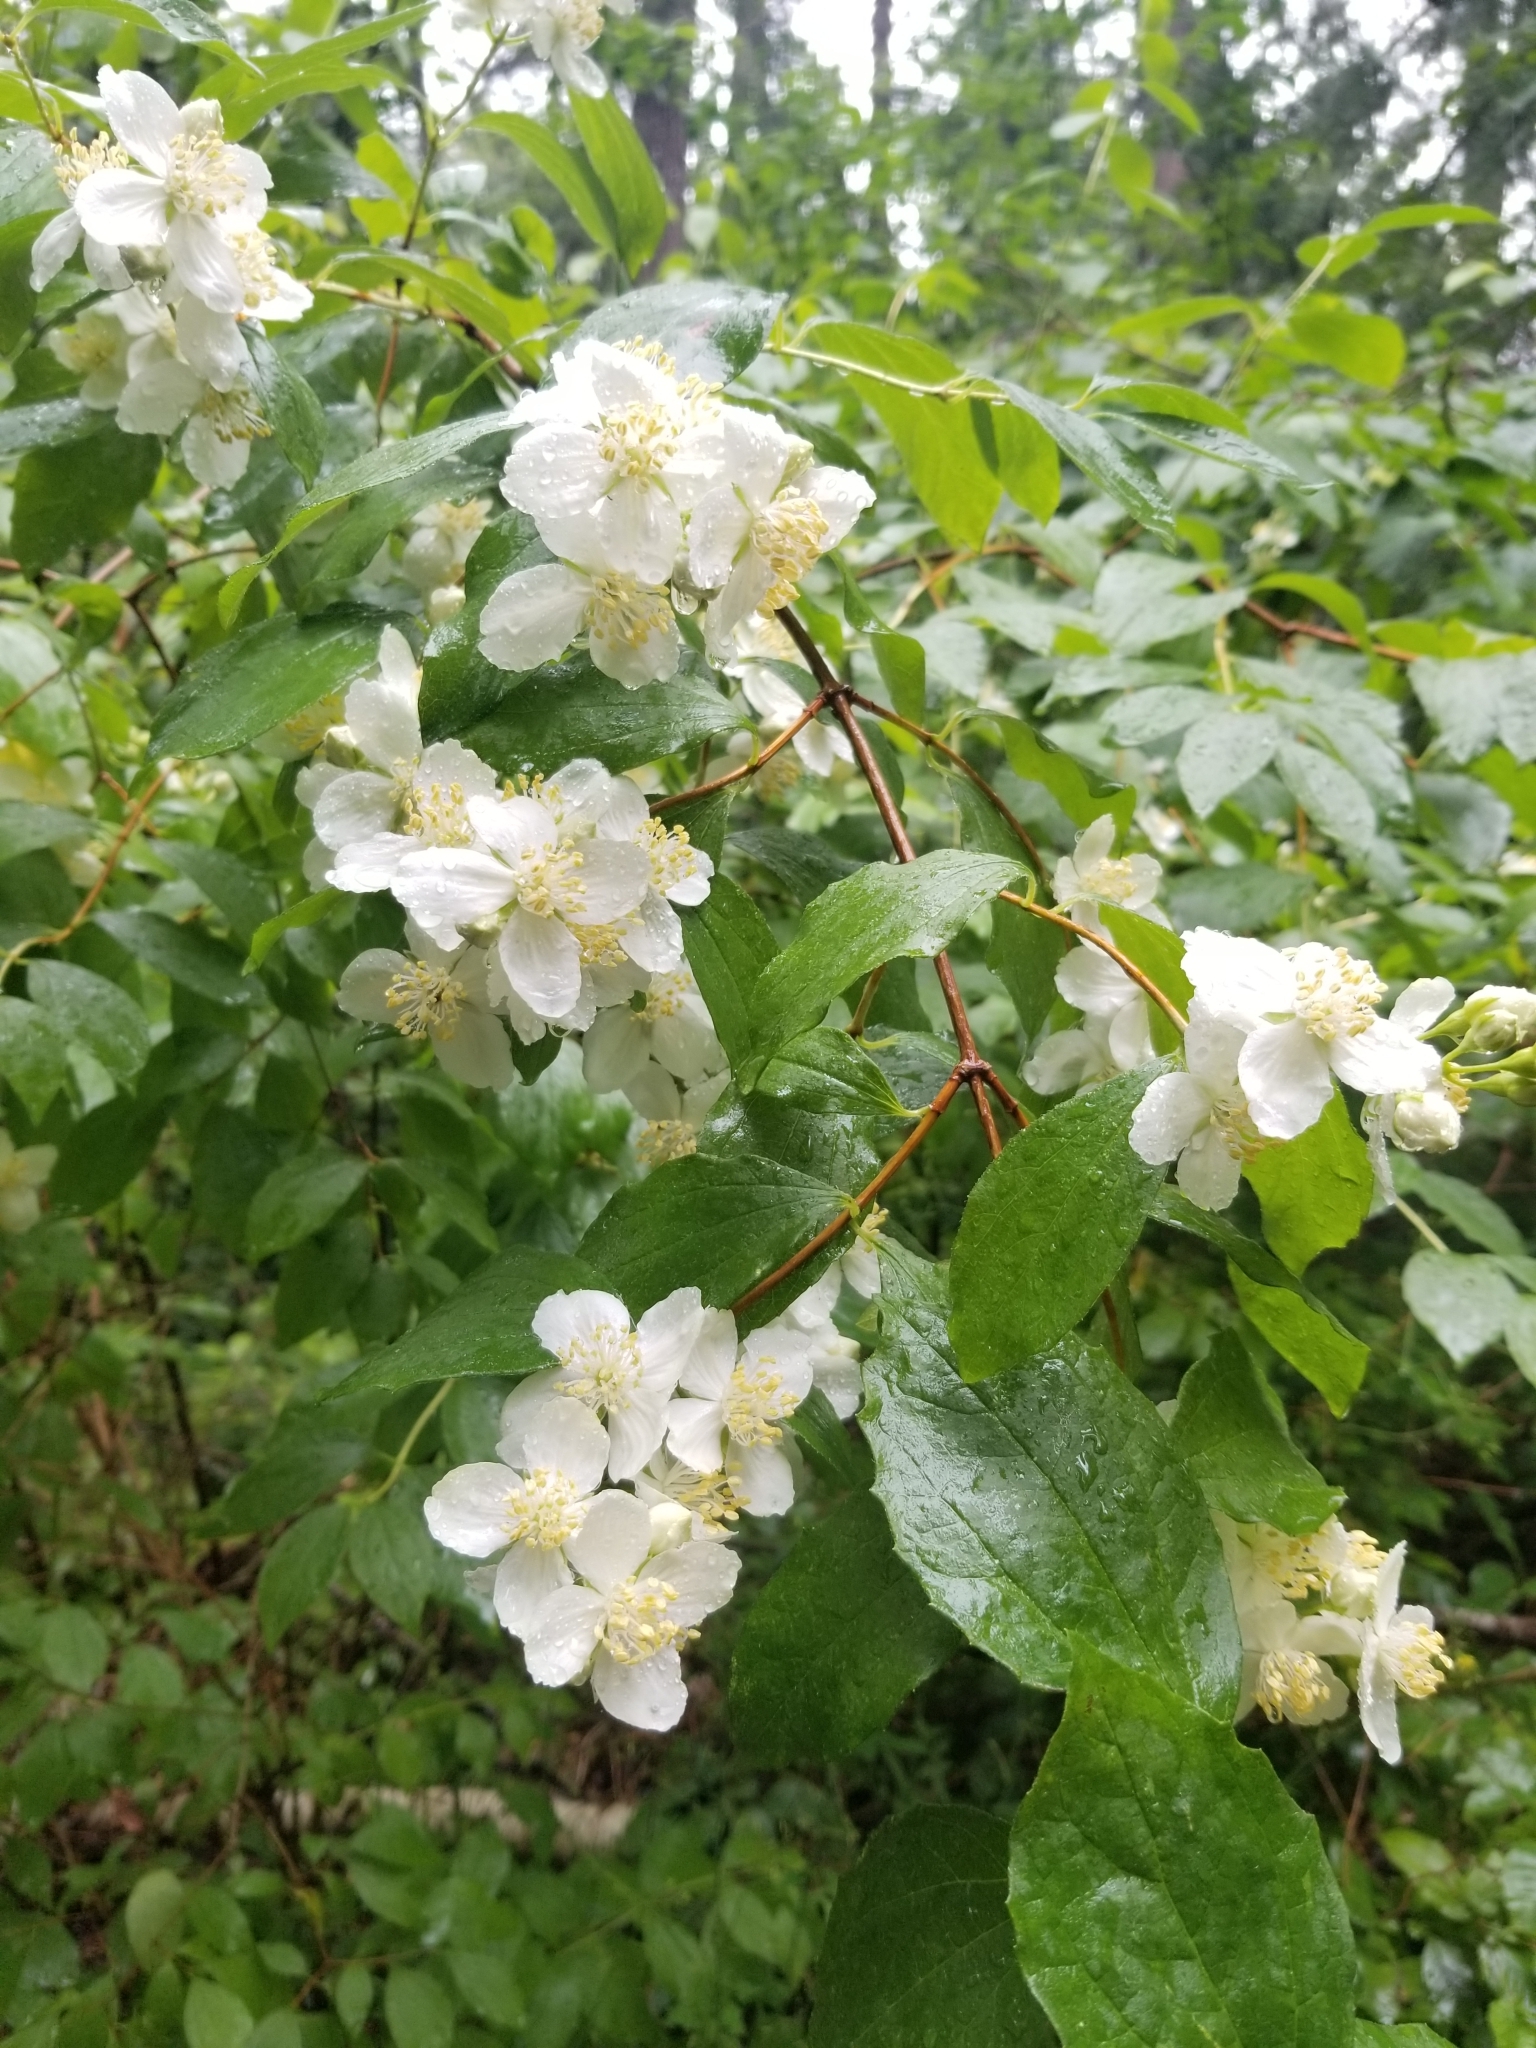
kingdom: Plantae
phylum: Tracheophyta
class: Magnoliopsida
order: Cornales
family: Hydrangeaceae
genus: Philadelphus
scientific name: Philadelphus lewisii
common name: Lewis's mock orange
